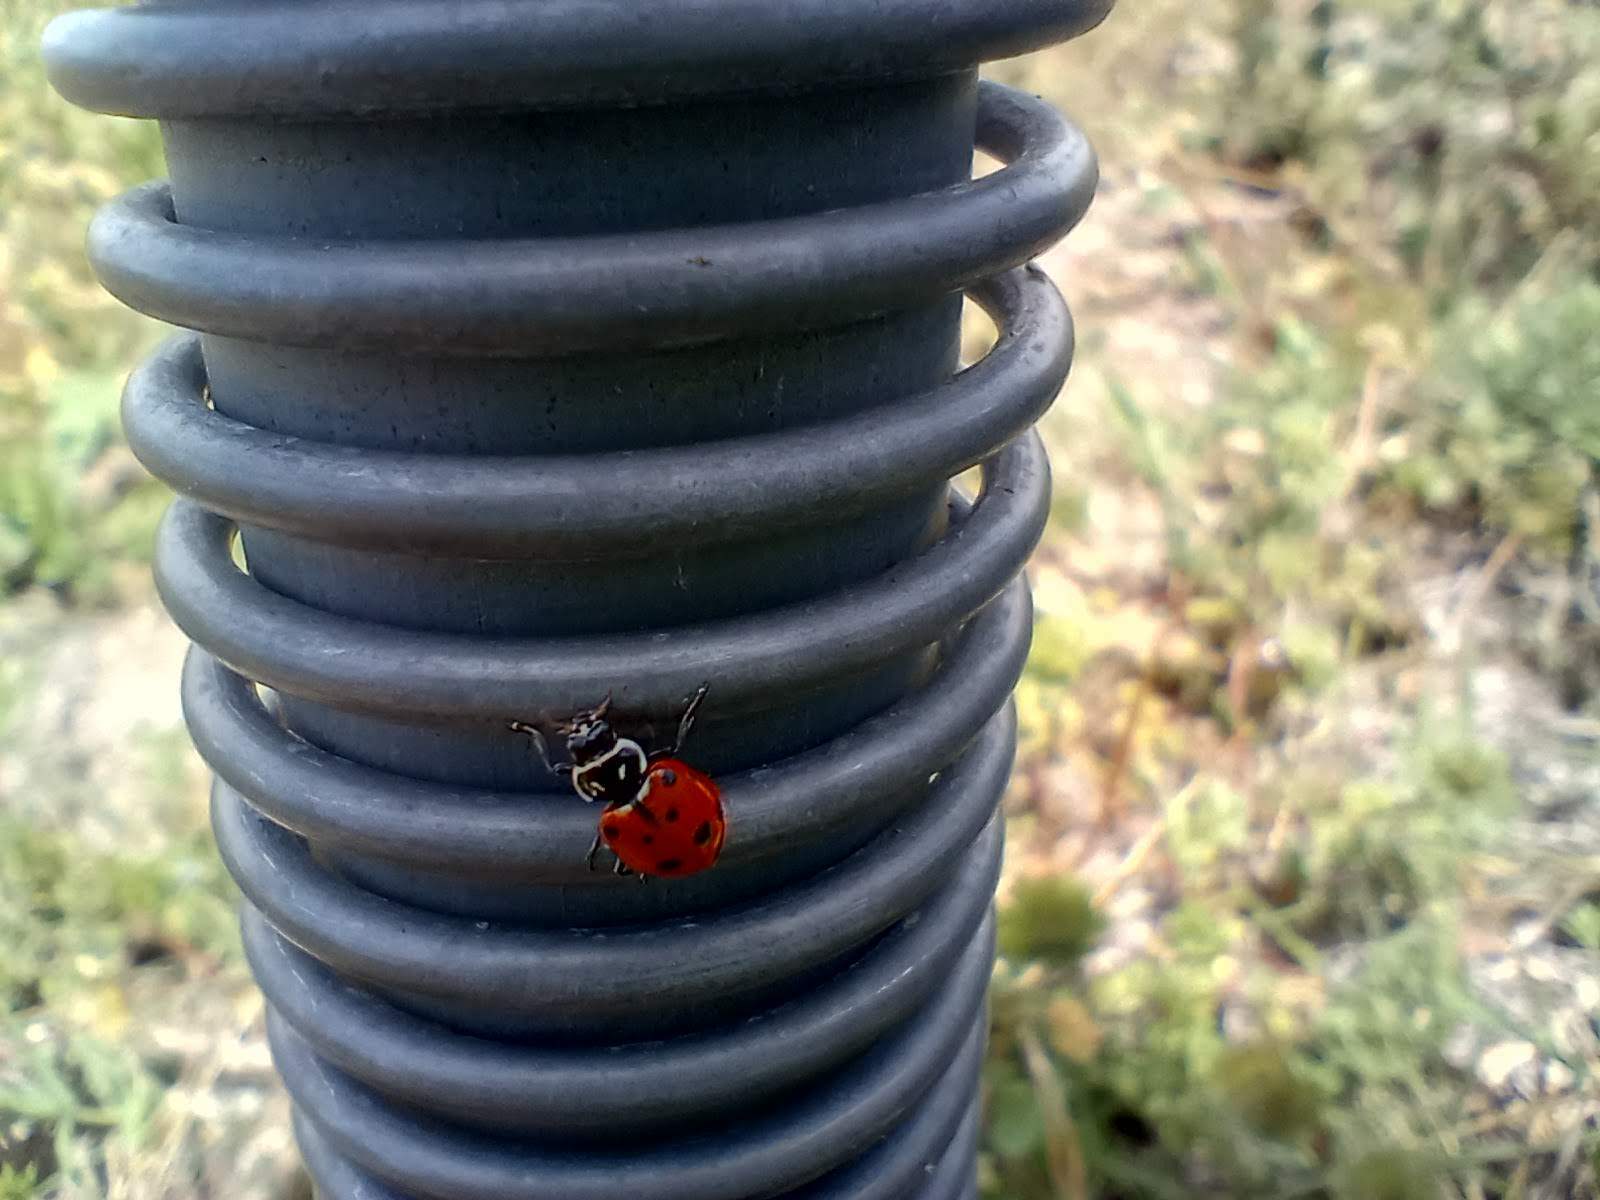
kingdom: Animalia
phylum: Arthropoda
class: Insecta
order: Coleoptera
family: Coccinellidae
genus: Hippodamia
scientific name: Hippodamia convergens
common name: Convergent lady beetle
